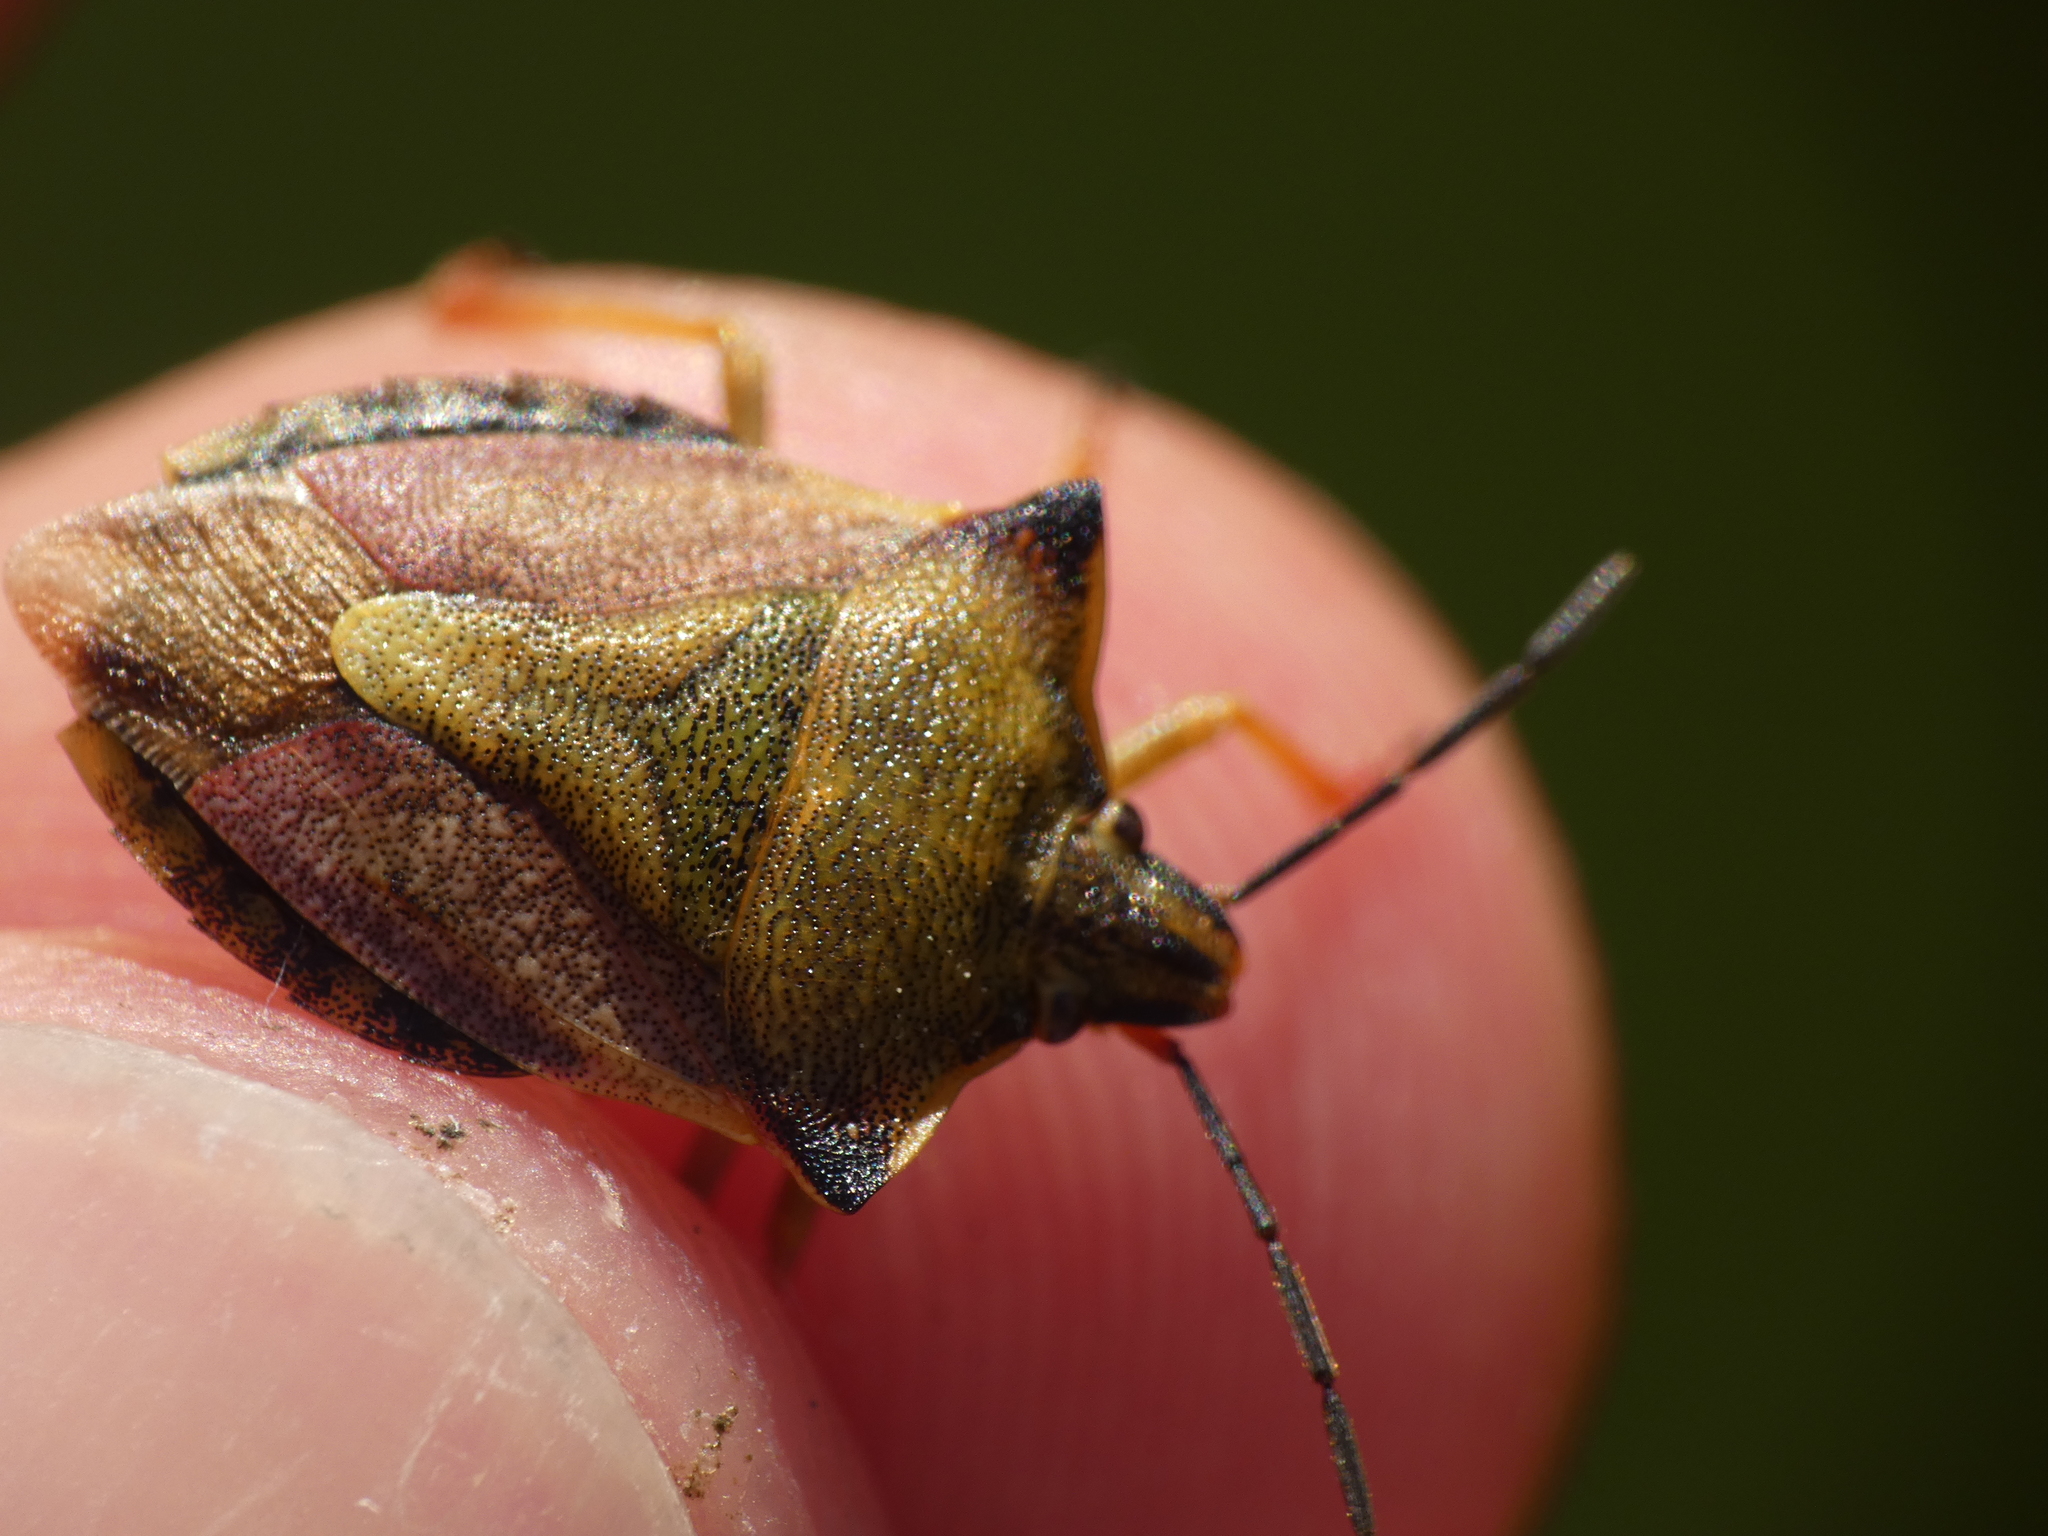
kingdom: Animalia
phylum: Arthropoda
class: Insecta
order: Hemiptera
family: Pentatomidae
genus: Carpocoris
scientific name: Carpocoris mediterraneus
